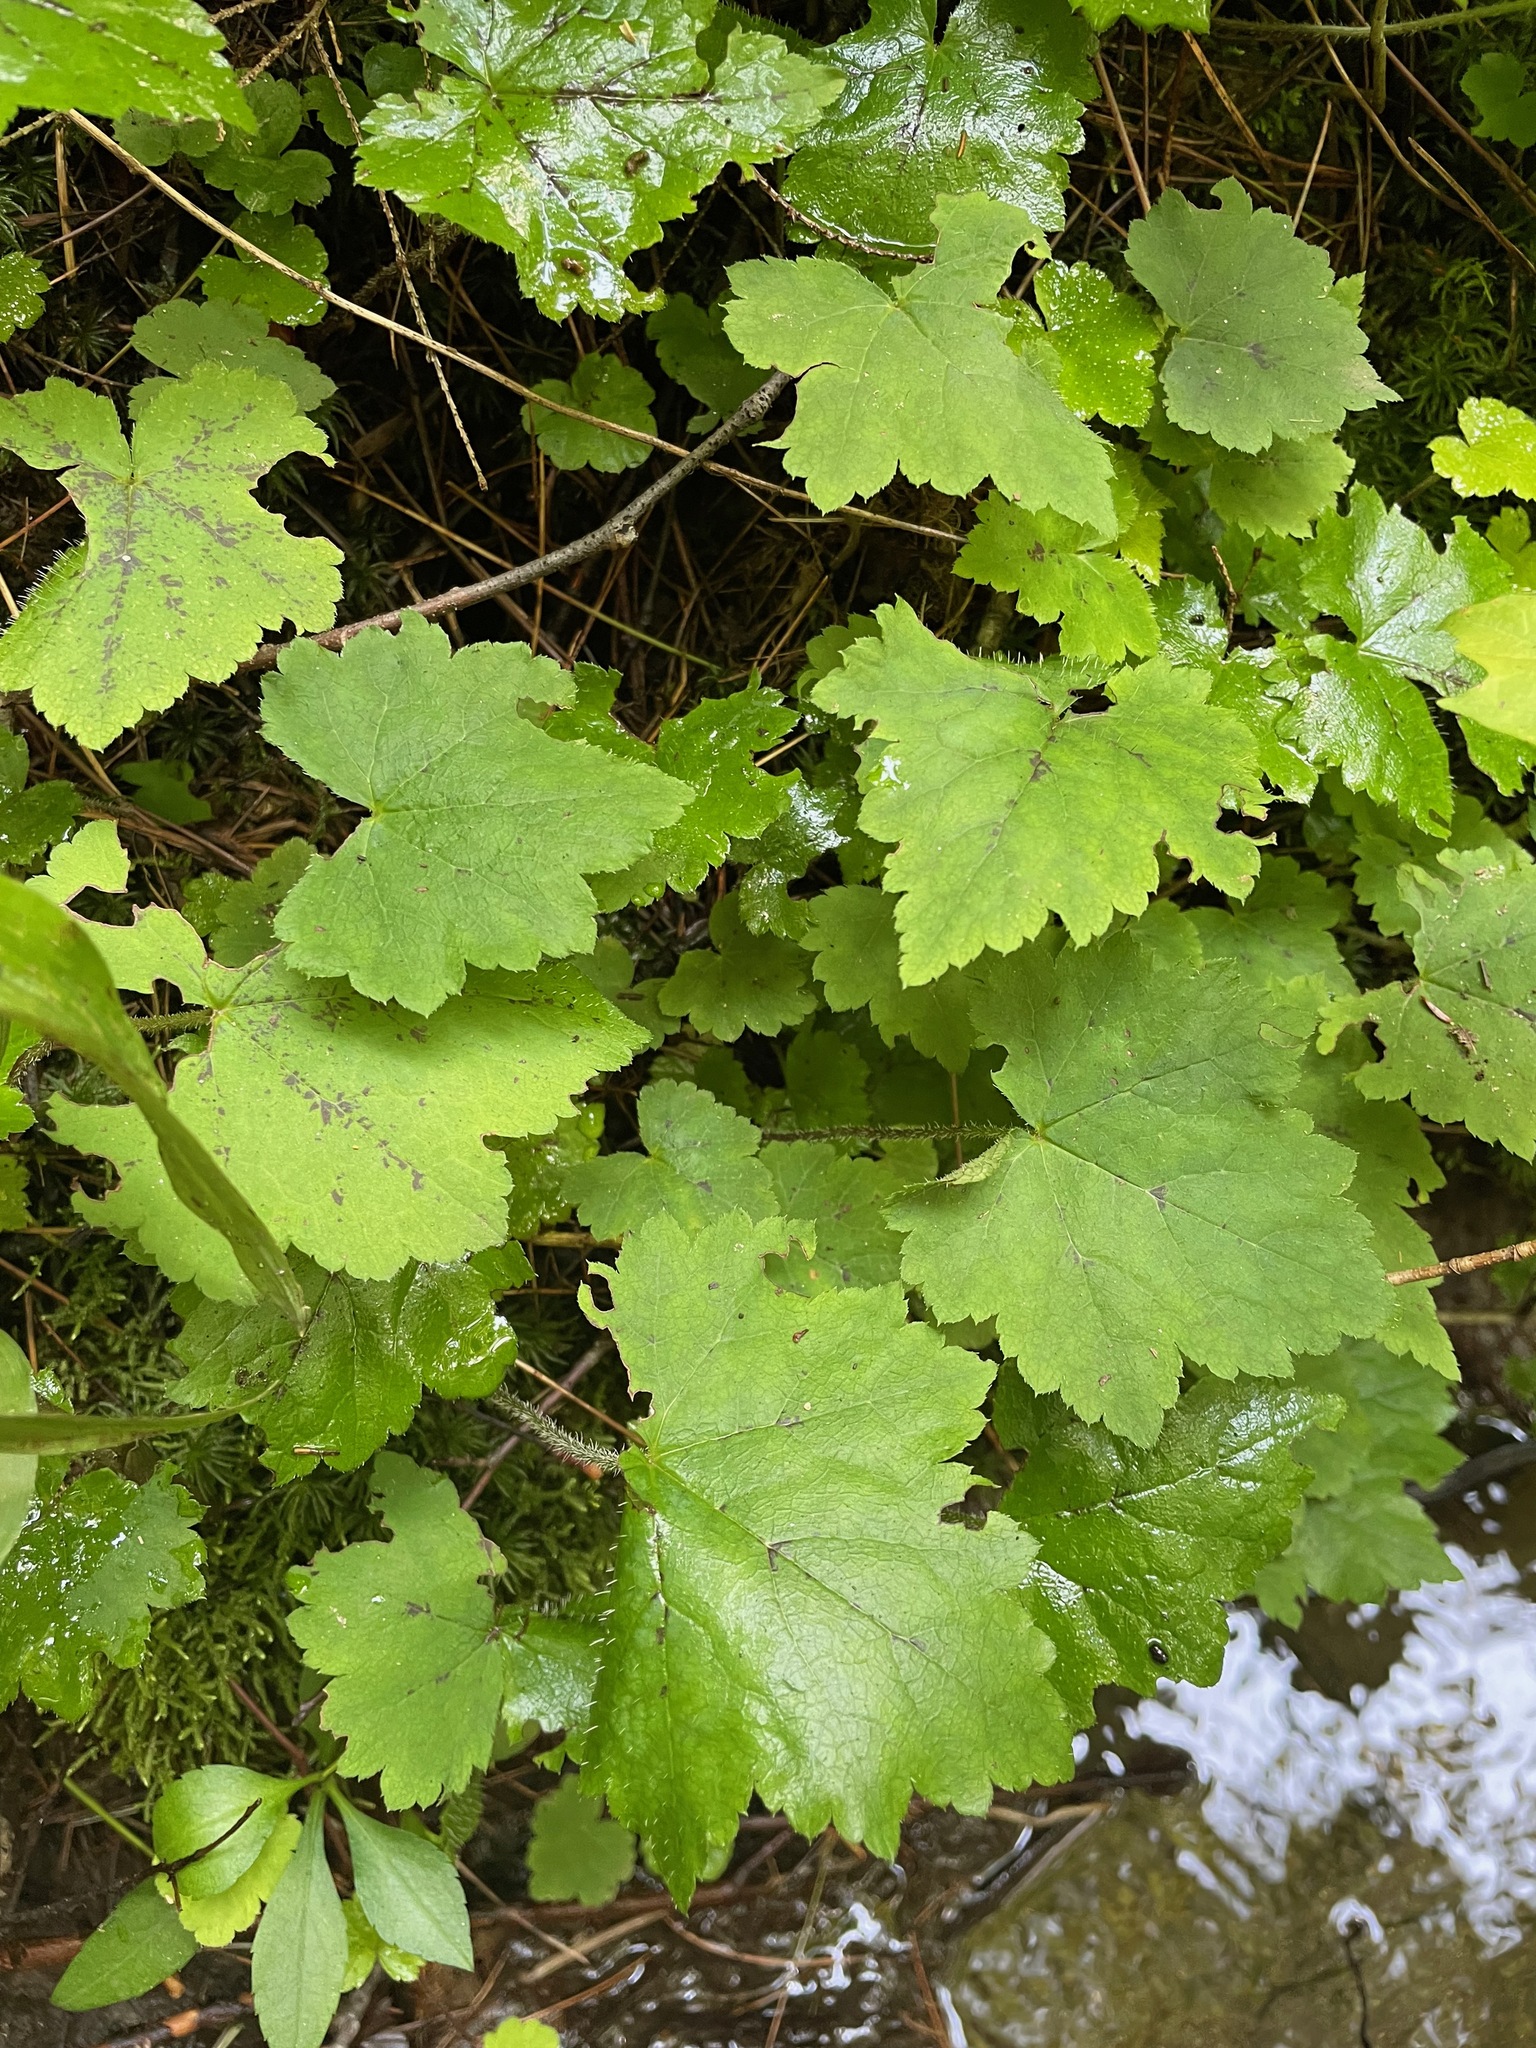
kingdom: Plantae
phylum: Tracheophyta
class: Magnoliopsida
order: Saxifragales
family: Saxifragaceae
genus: Tiarella
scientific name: Tiarella stolonifera
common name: Stoloniferous foamflower
